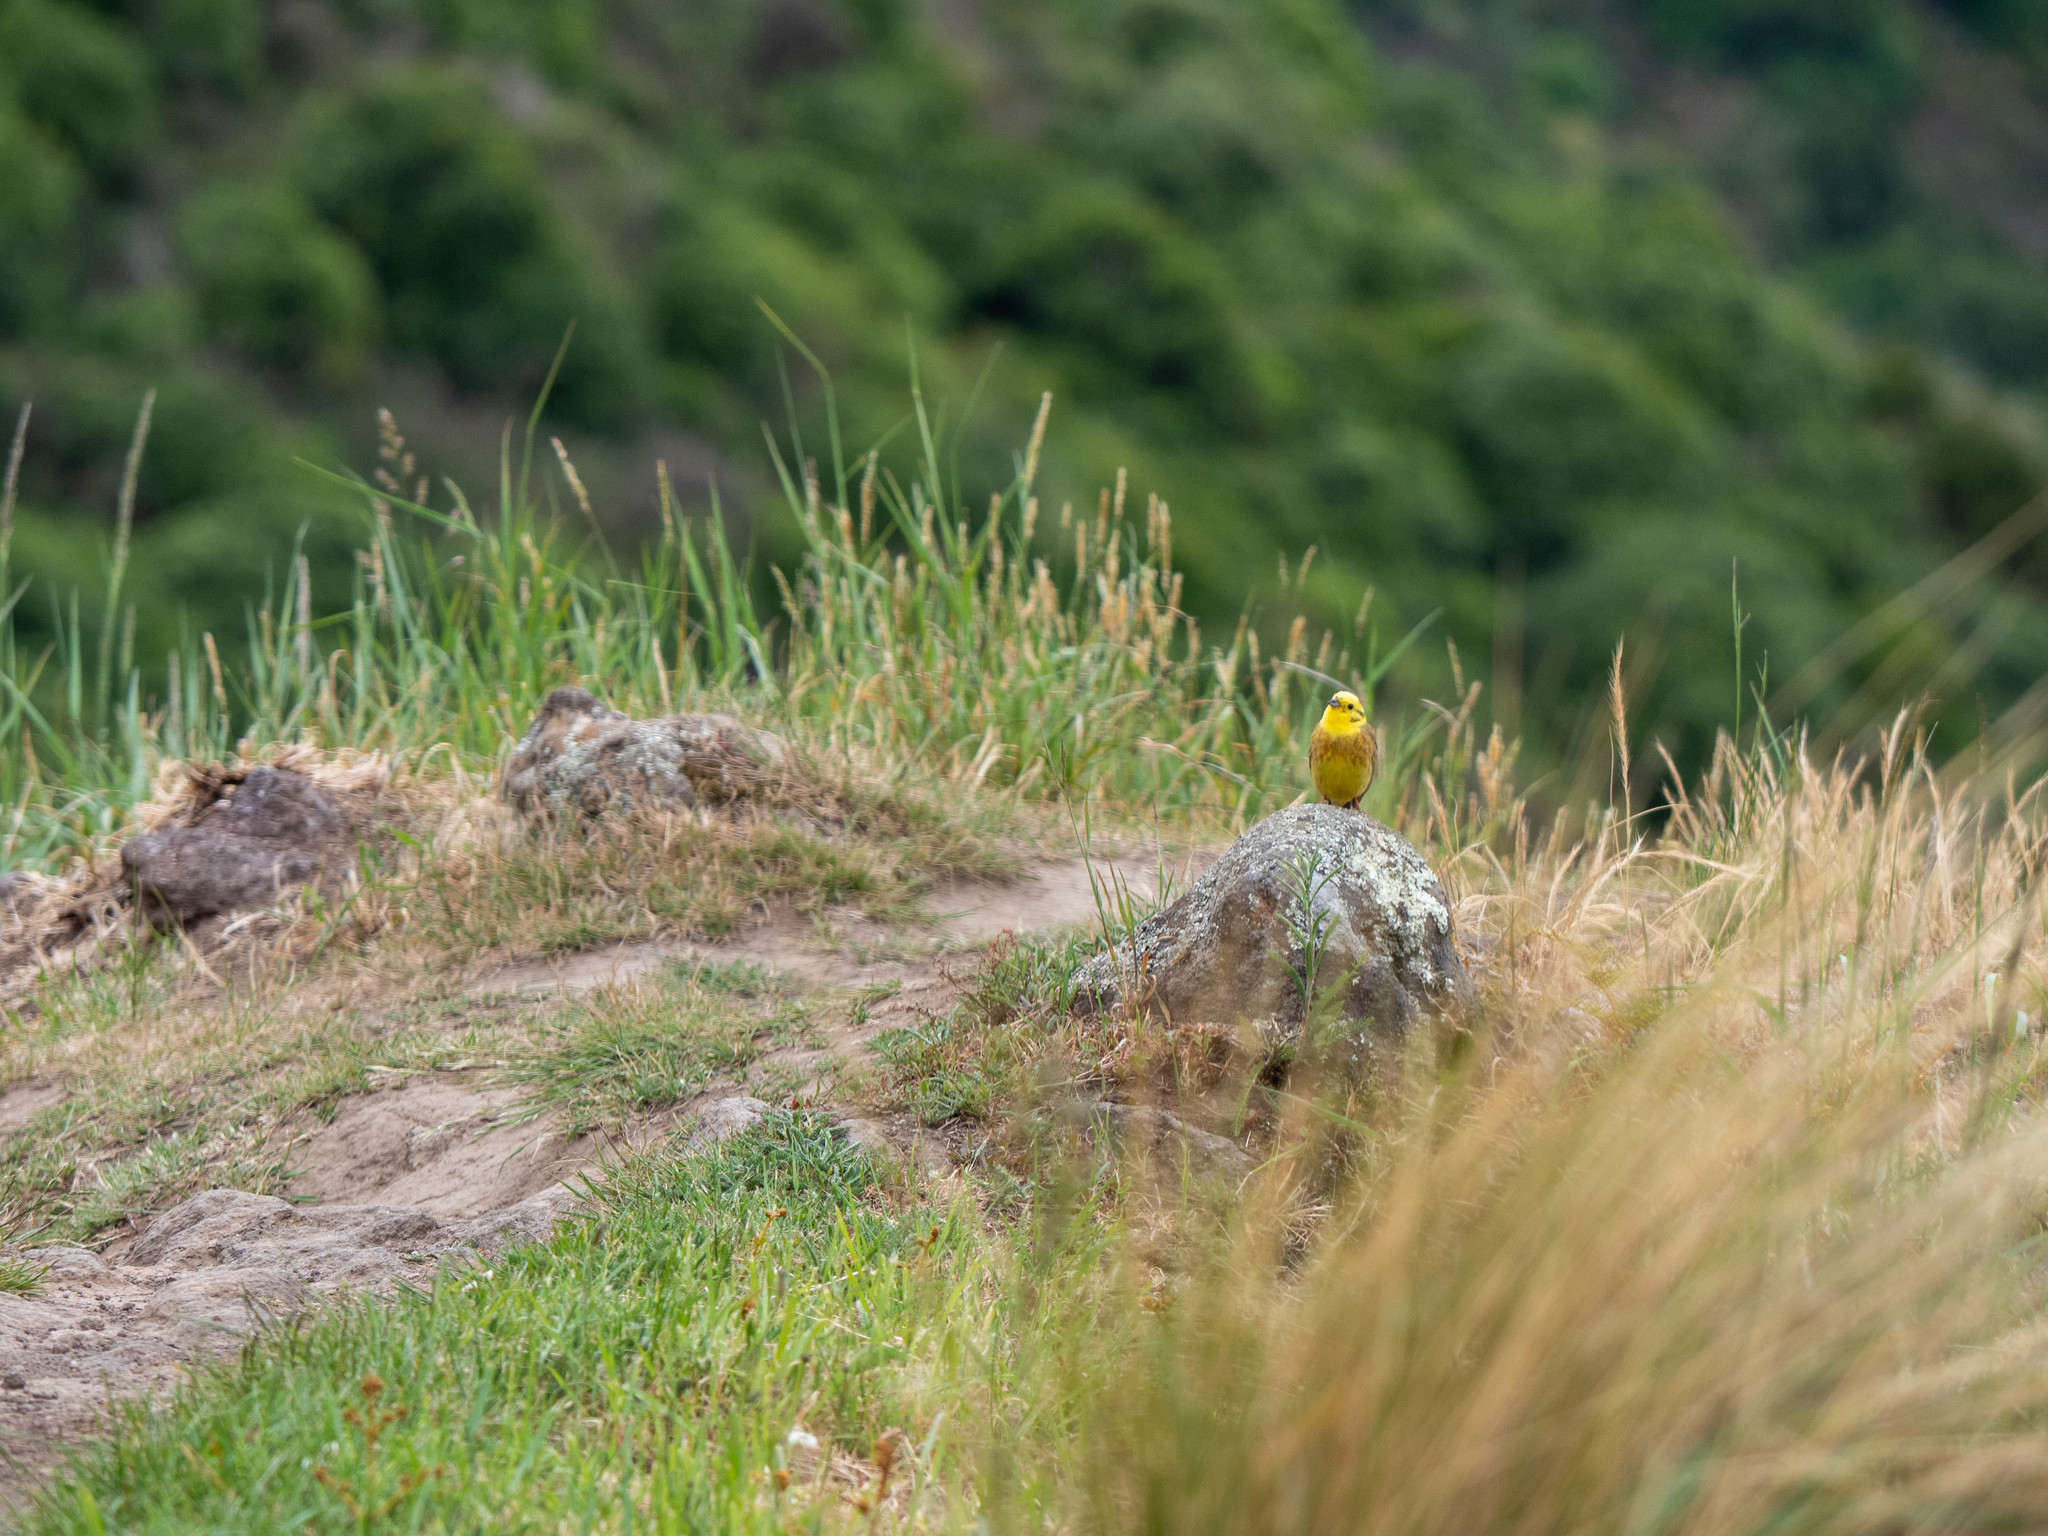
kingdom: Animalia
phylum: Chordata
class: Aves
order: Passeriformes
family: Emberizidae
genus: Emberiza
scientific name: Emberiza citrinella
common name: Yellowhammer
